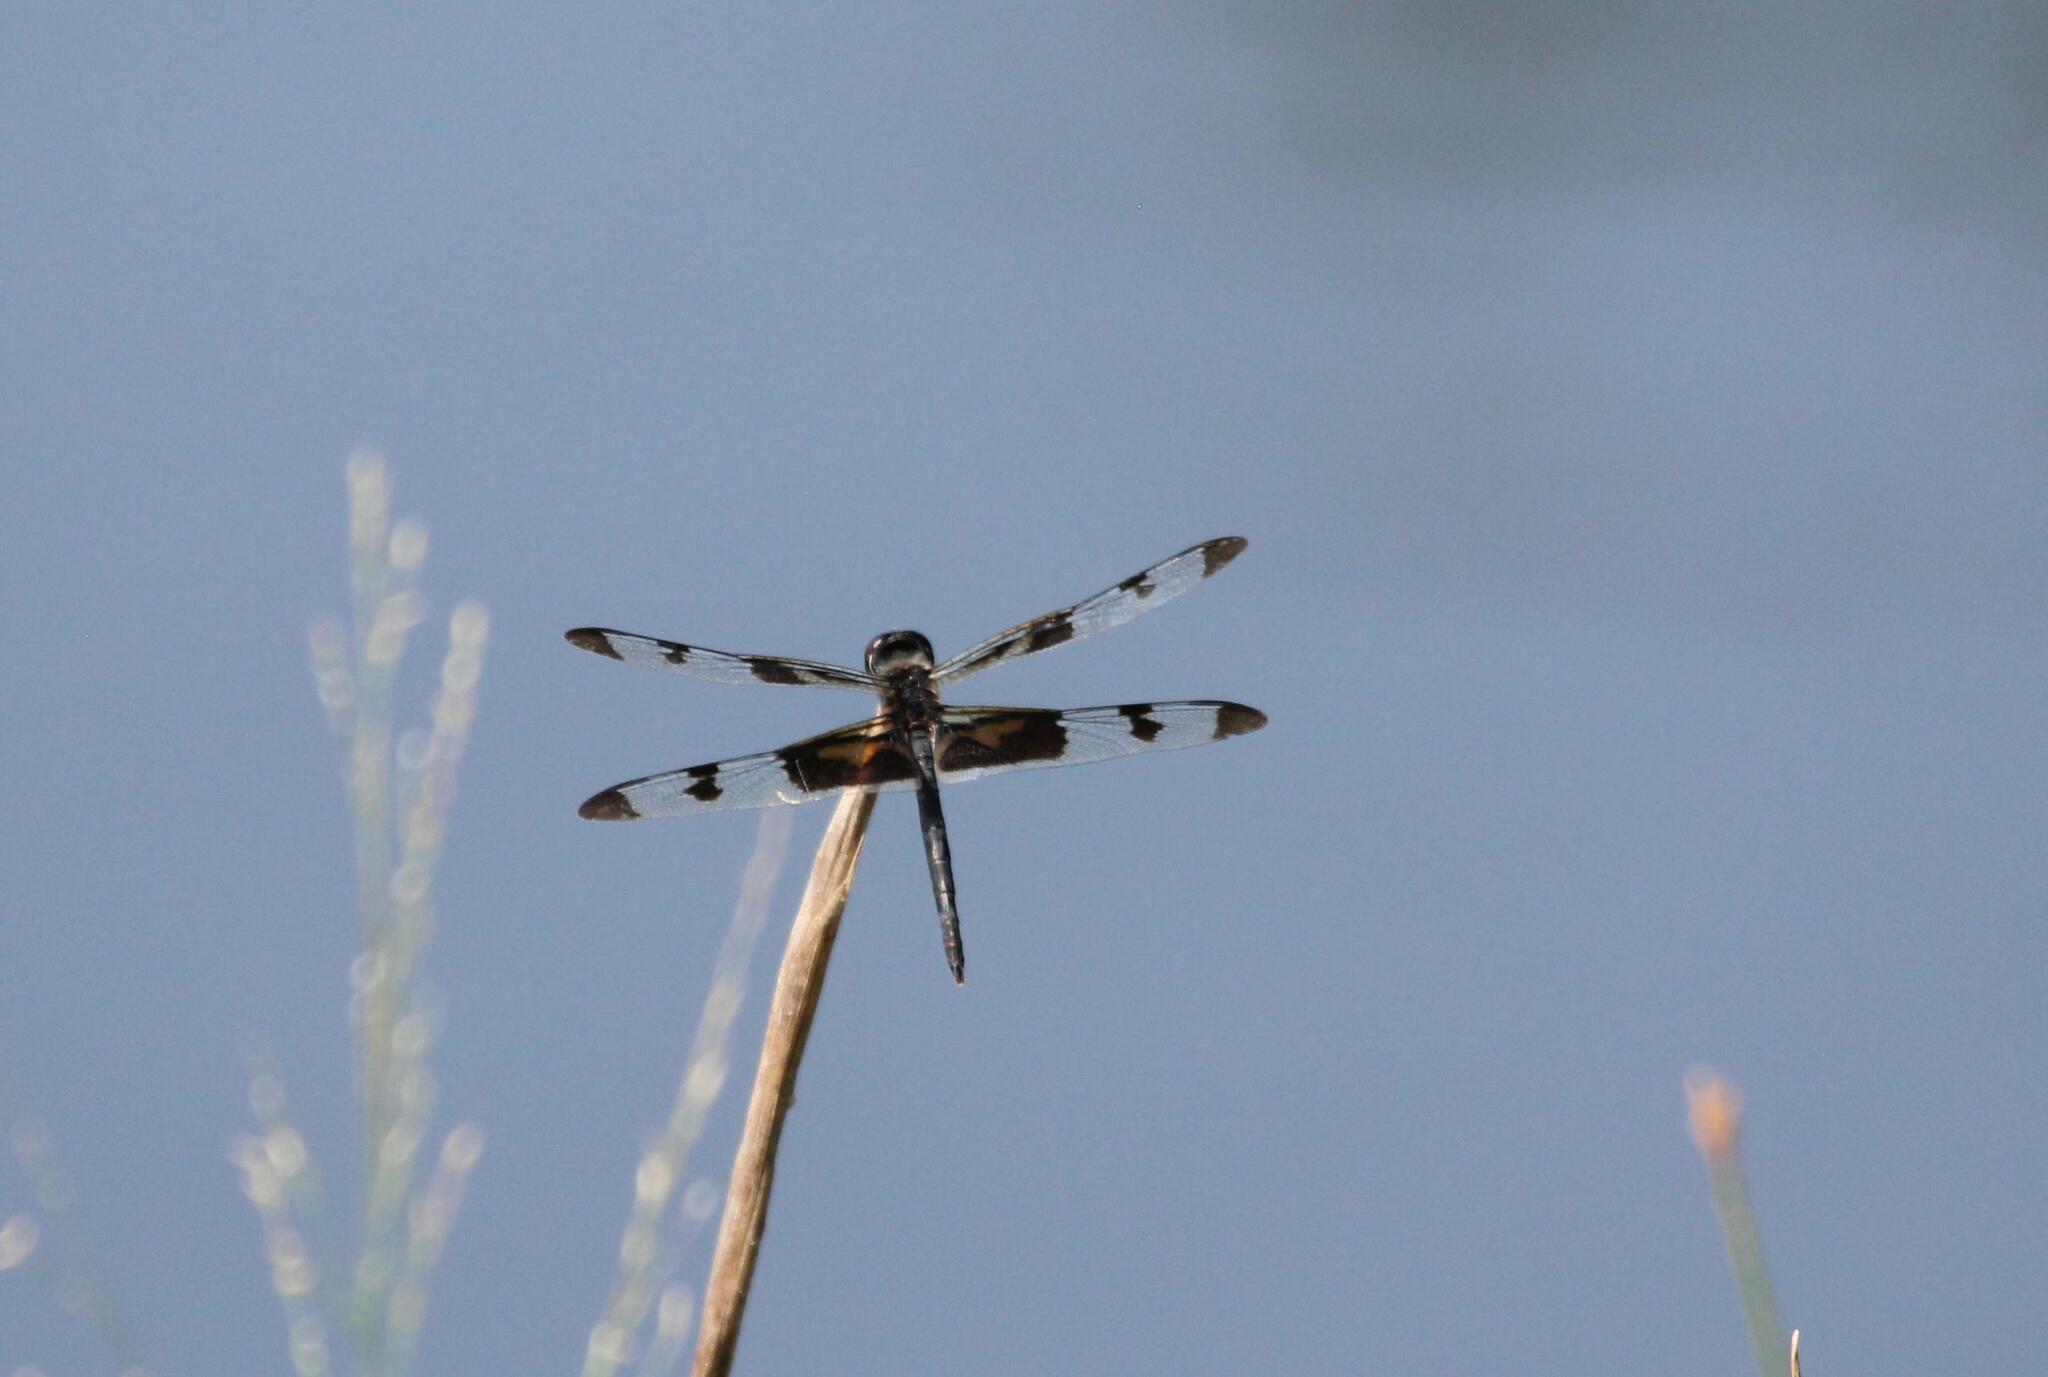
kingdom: Animalia
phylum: Arthropoda
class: Insecta
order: Odonata
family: Libellulidae
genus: Celithemis
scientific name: Celithemis fasciata
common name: Banded pennant
